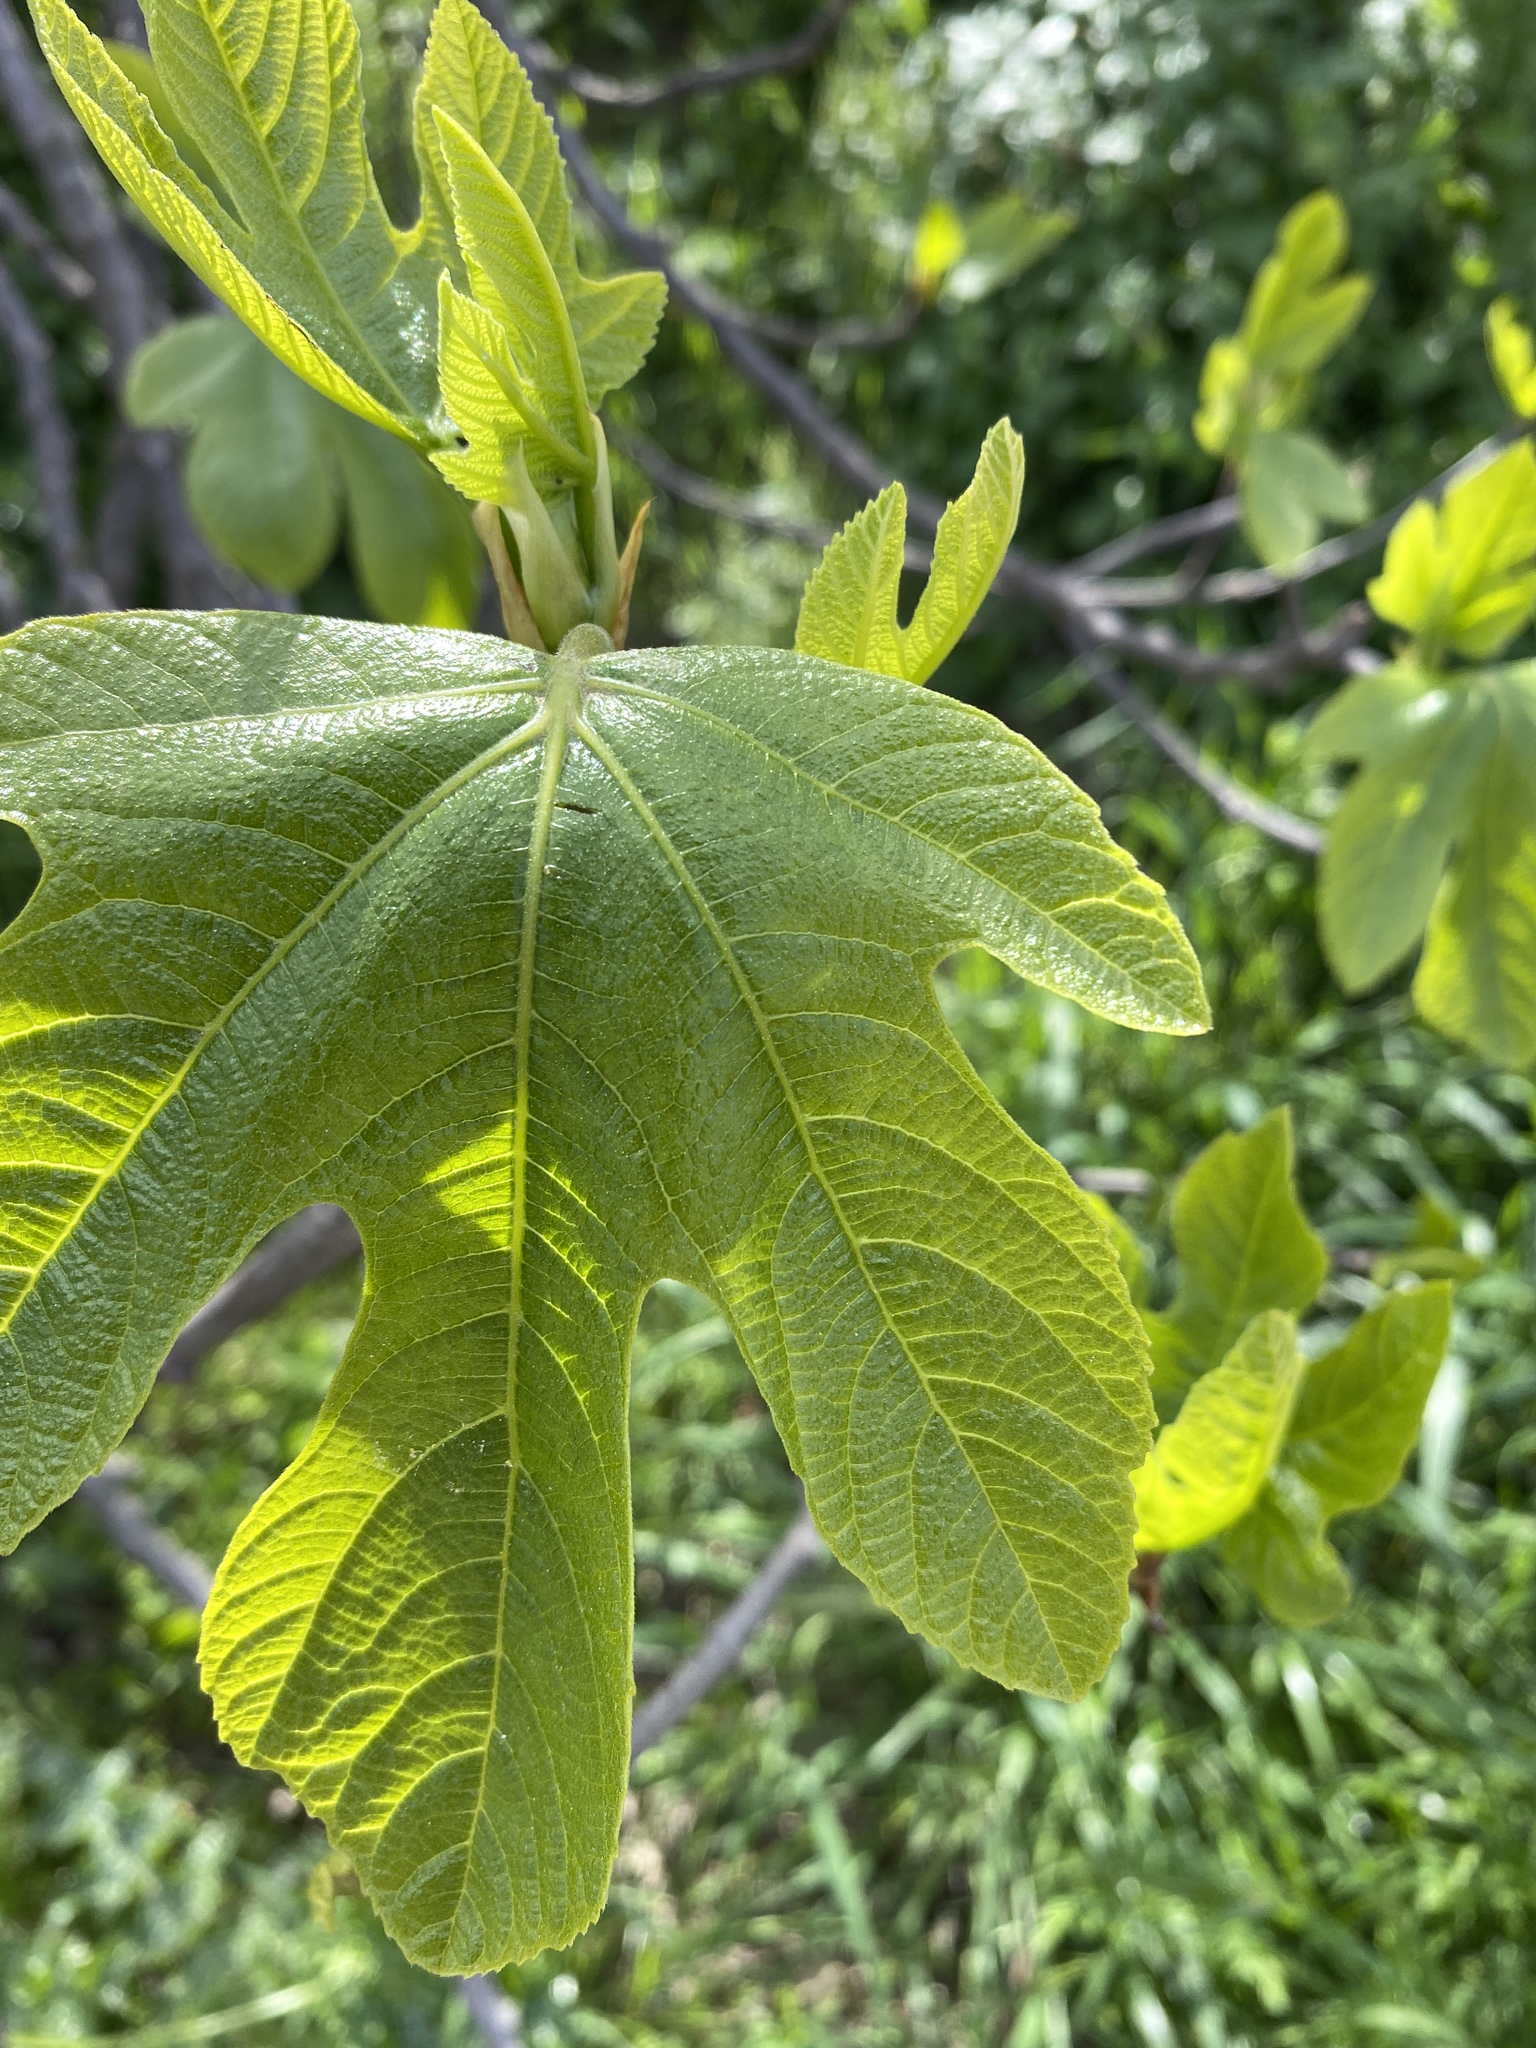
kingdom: Plantae
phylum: Tracheophyta
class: Magnoliopsida
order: Rosales
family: Moraceae
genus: Ficus
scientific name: Ficus carica
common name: Fig
